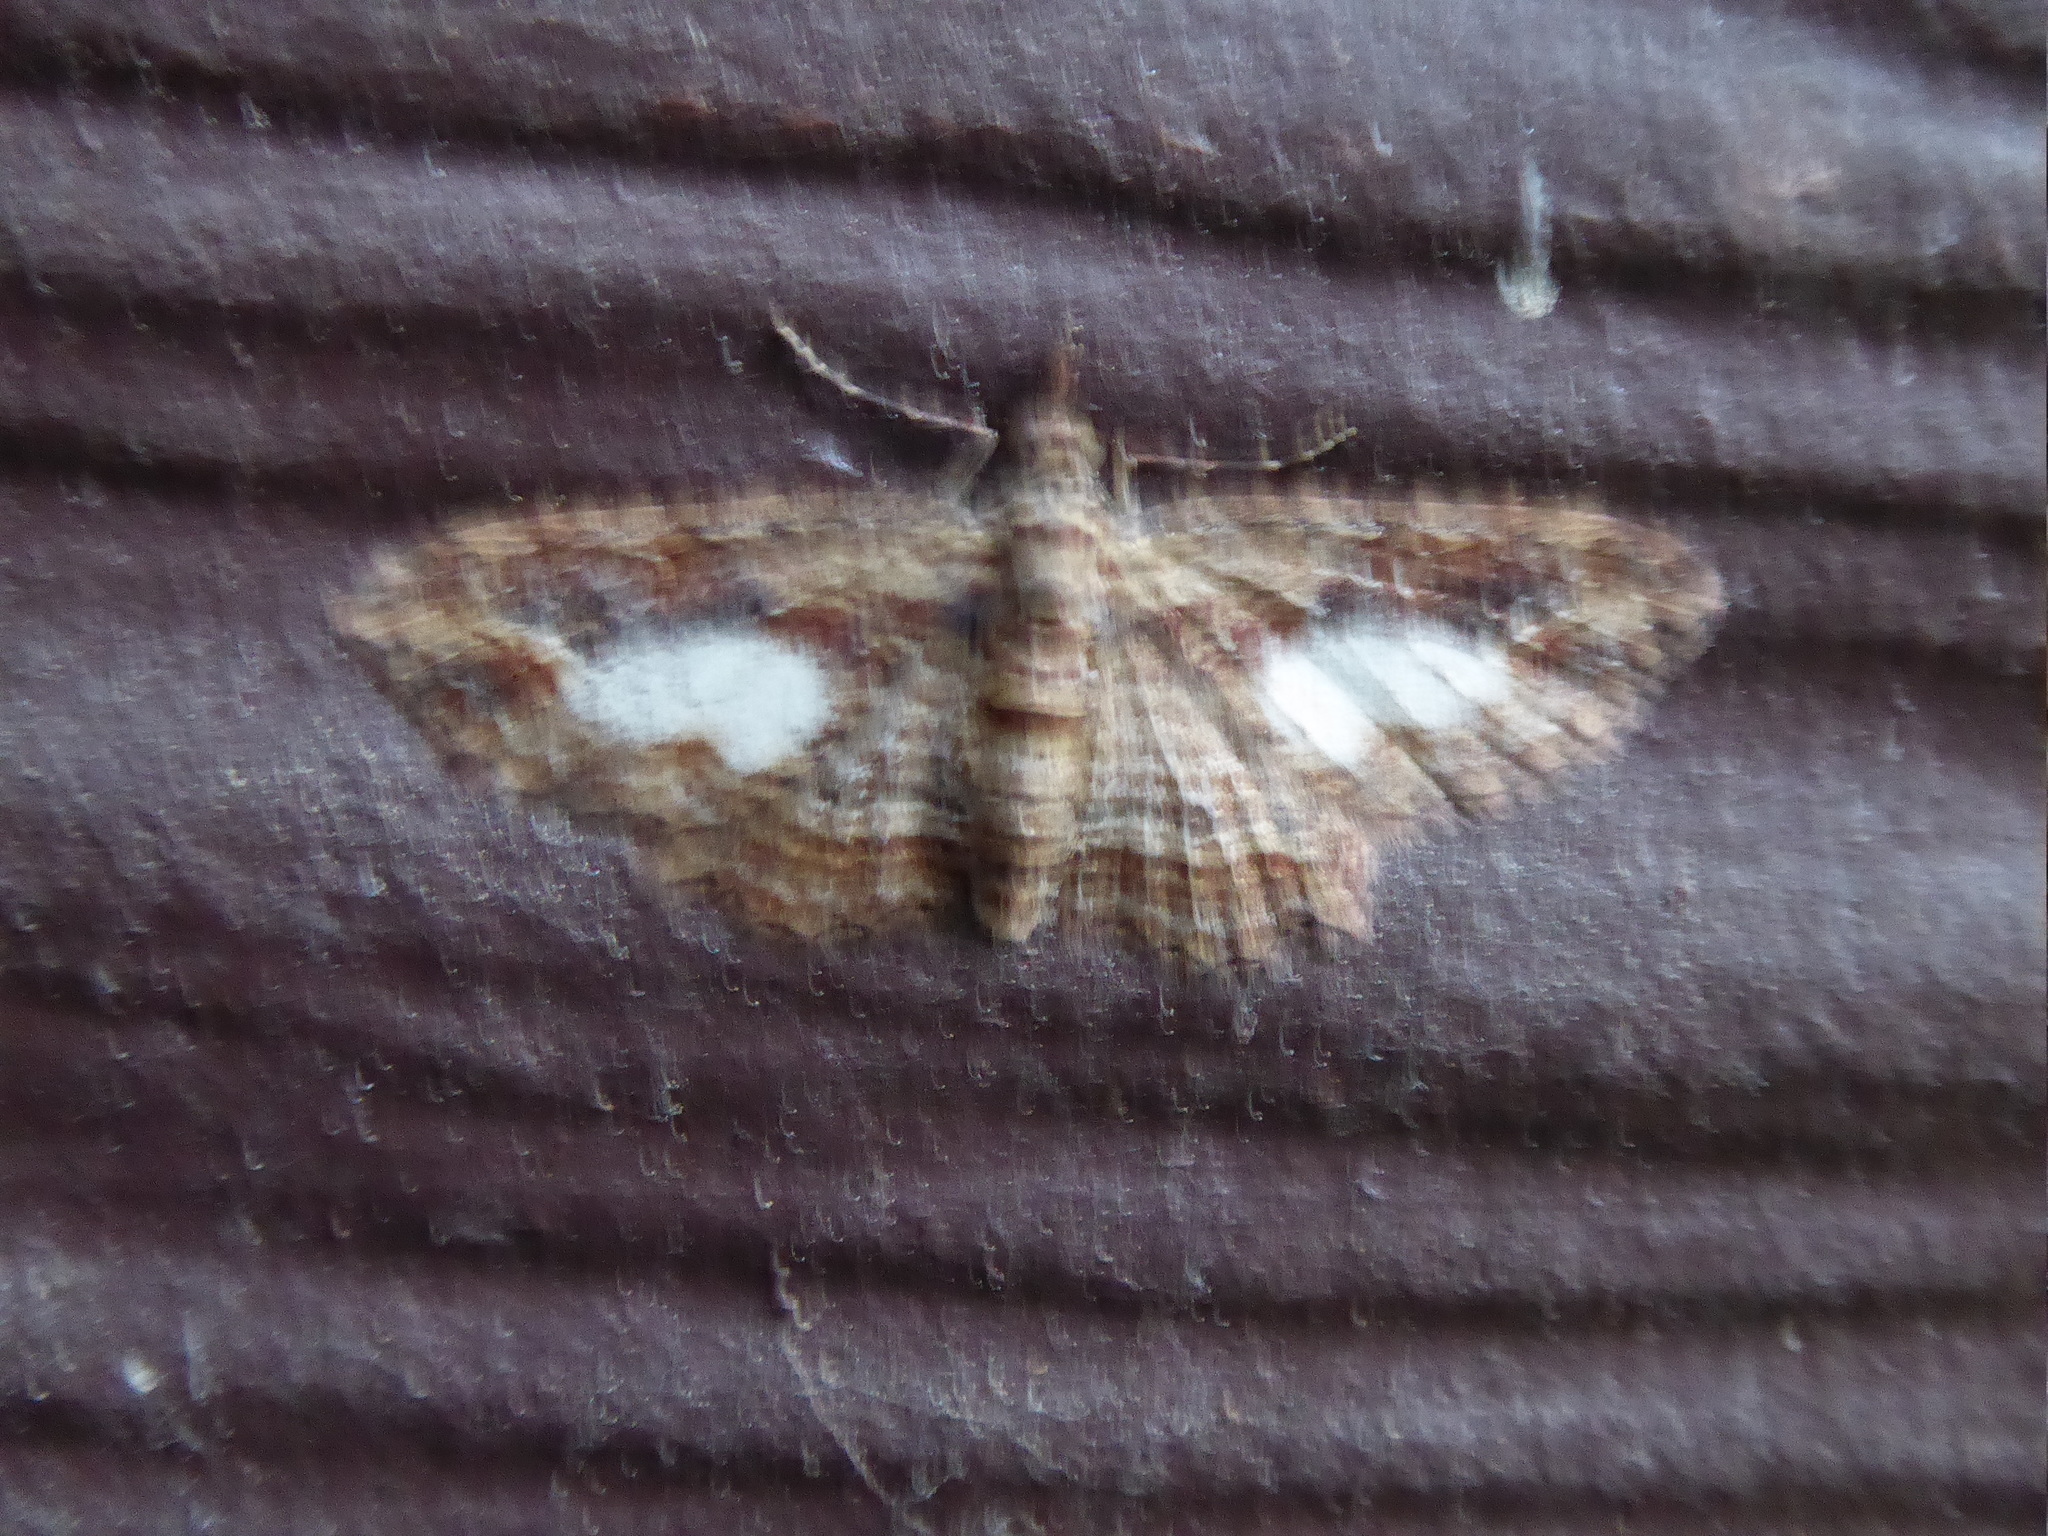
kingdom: Animalia
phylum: Arthropoda
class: Insecta
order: Lepidoptera
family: Geometridae
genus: Chloroclystis
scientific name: Chloroclystis filata
